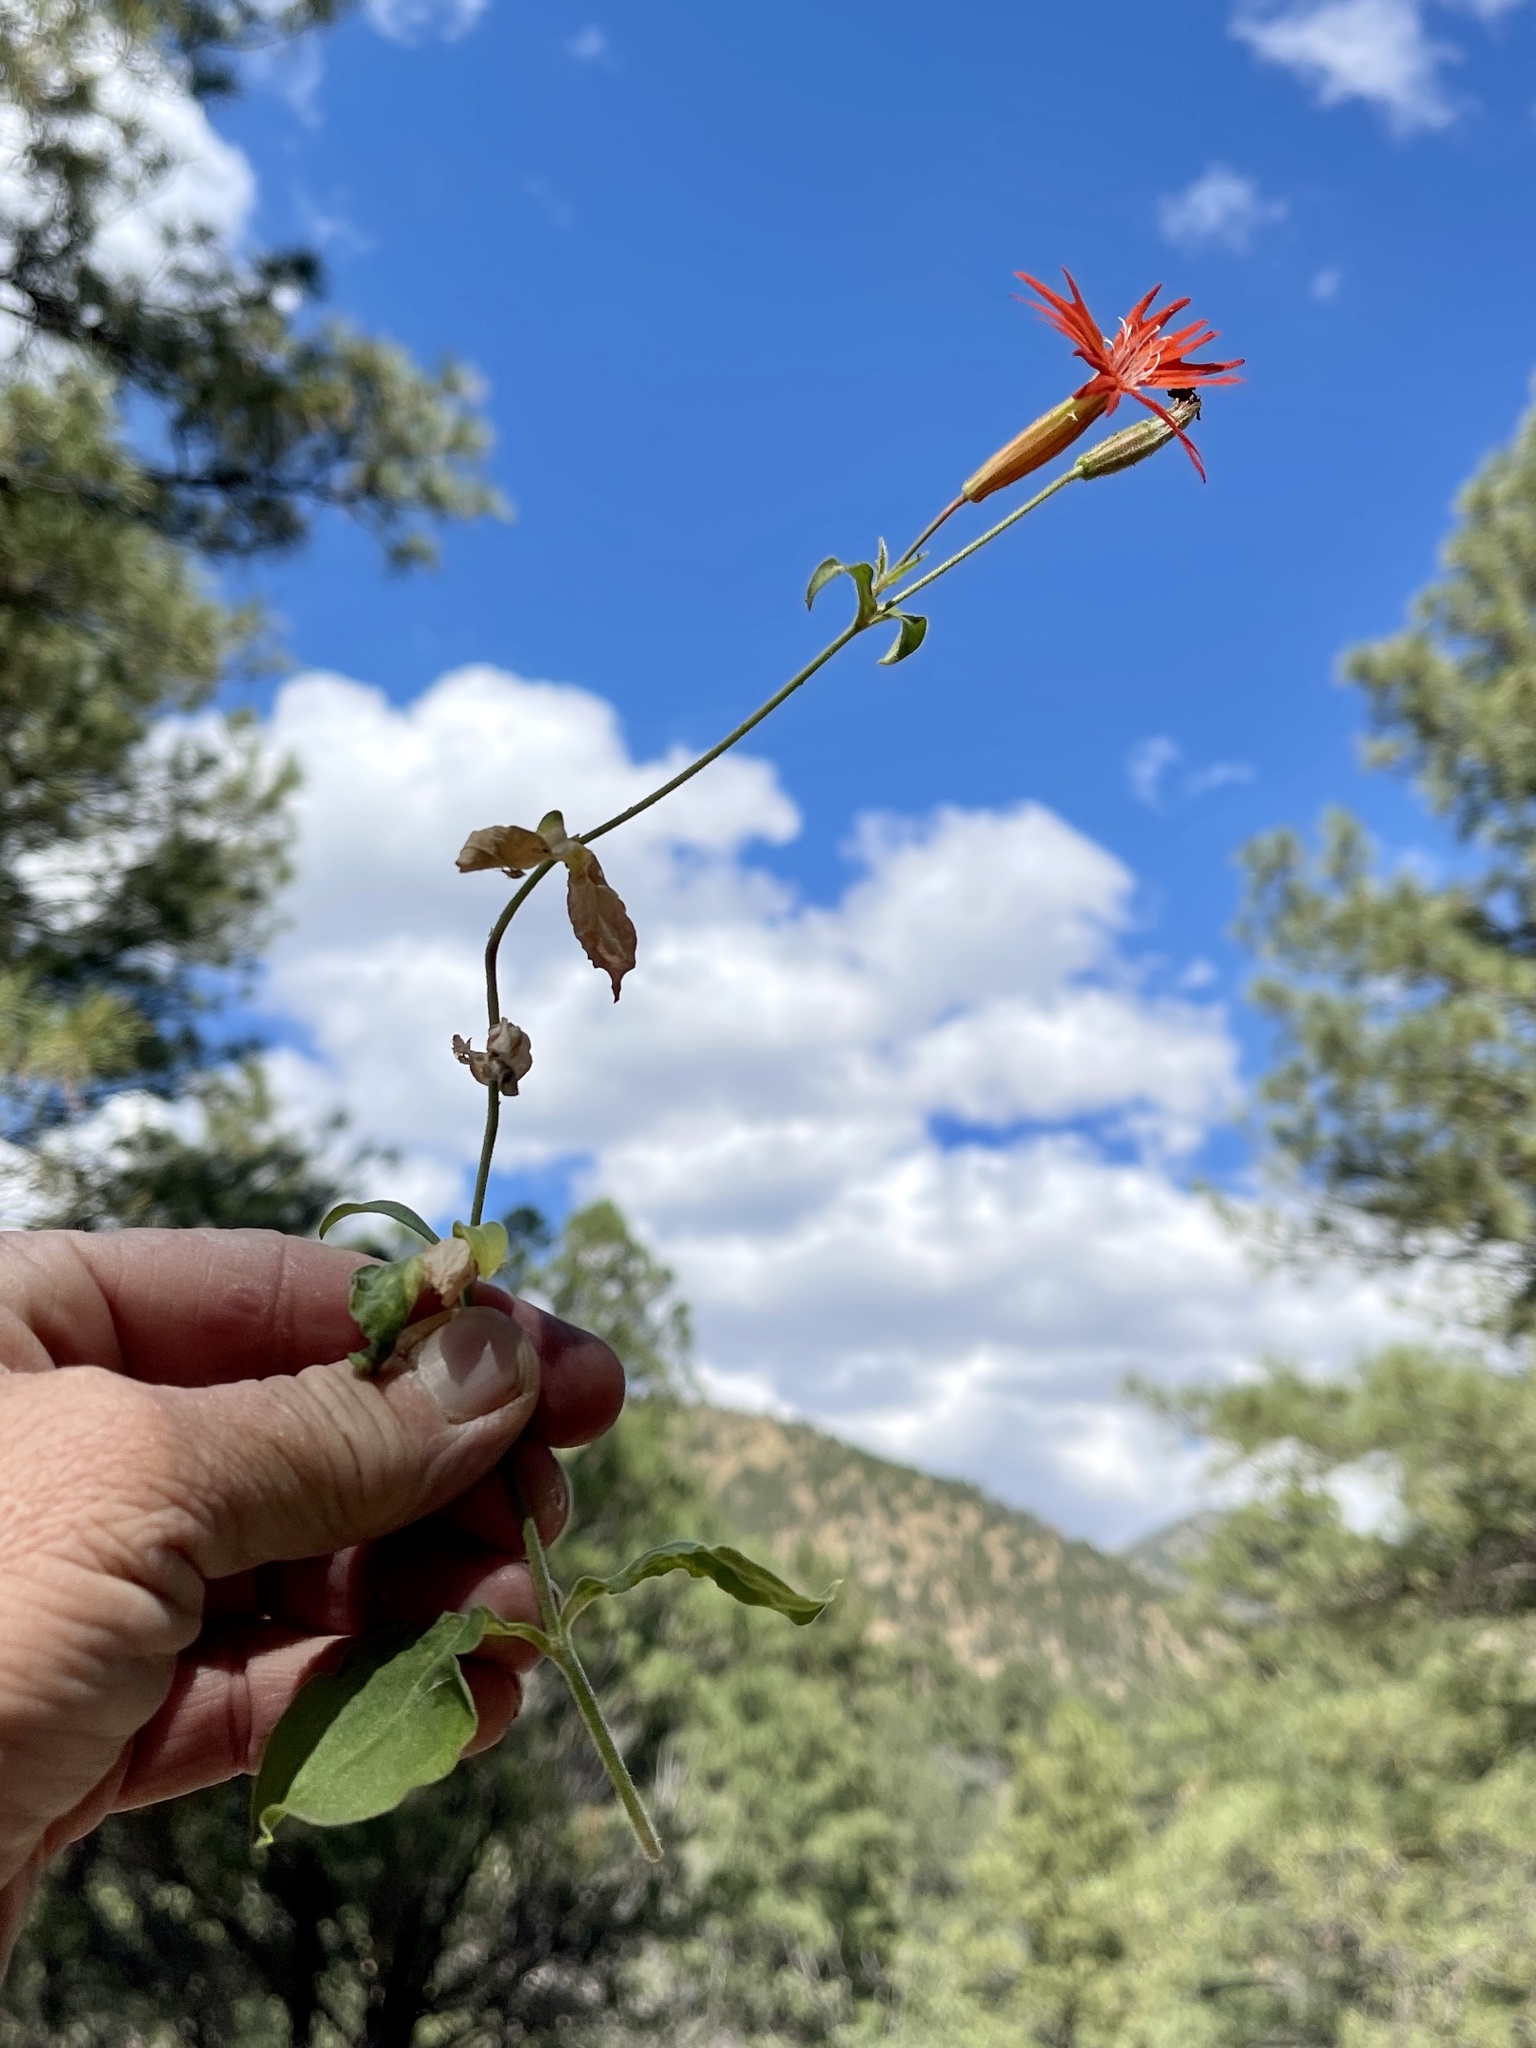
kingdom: Plantae
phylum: Tracheophyta
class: Magnoliopsida
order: Caryophyllales
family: Caryophyllaceae
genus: Silene
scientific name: Silene laciniata
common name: Indian-pink
